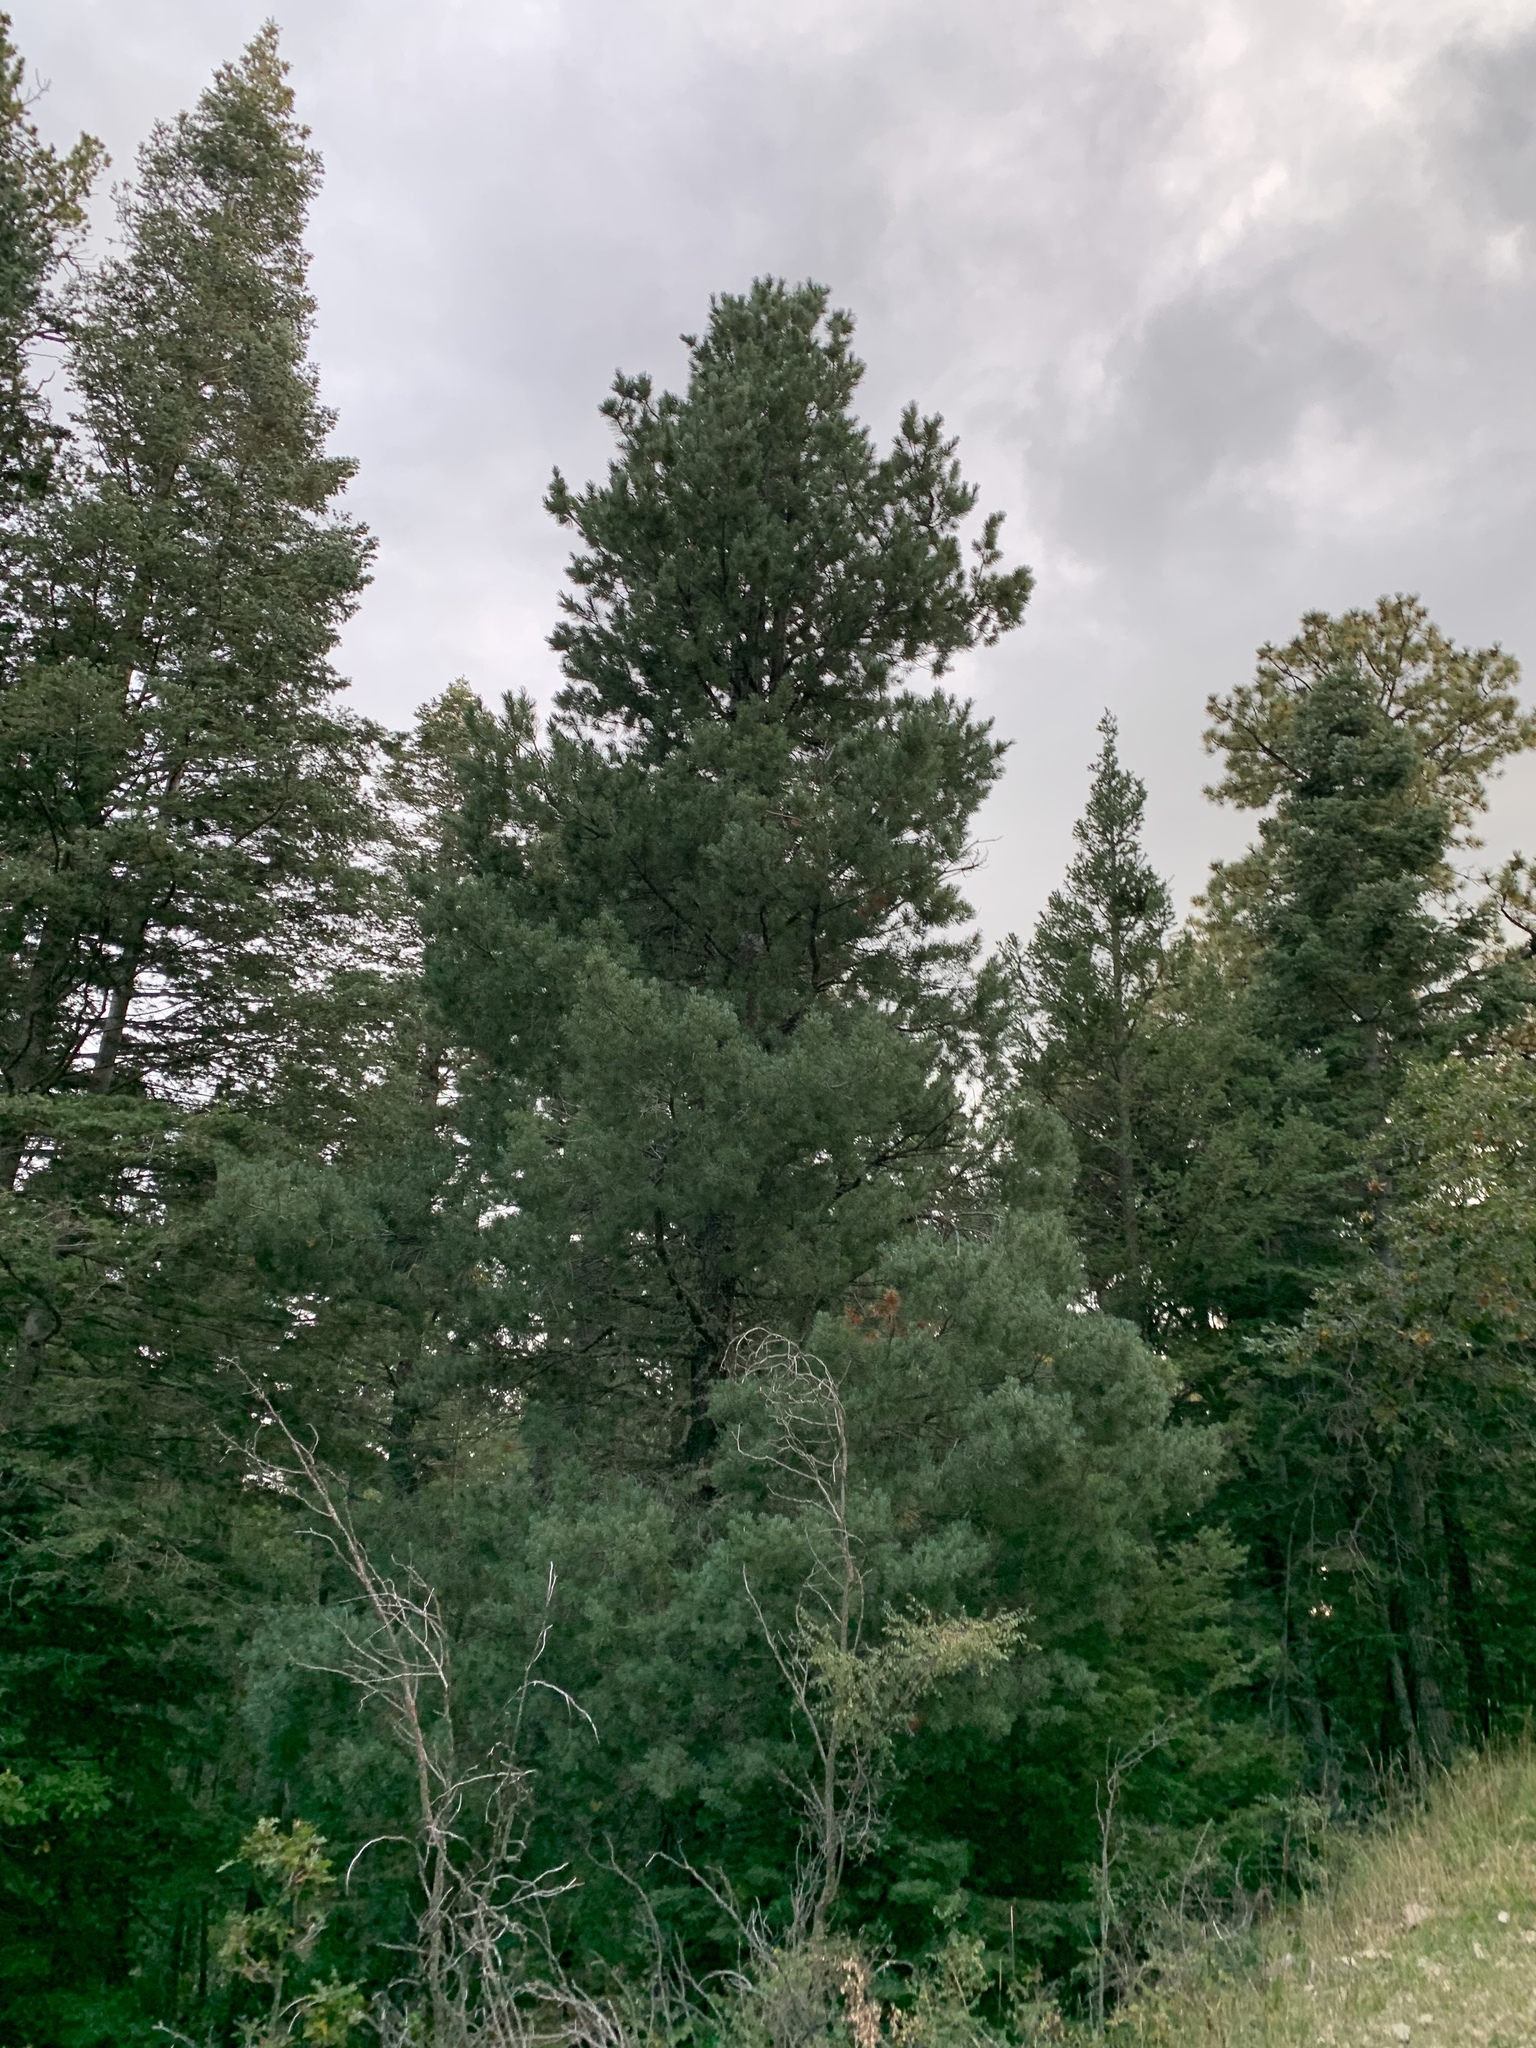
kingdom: Plantae
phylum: Tracheophyta
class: Pinopsida
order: Pinales
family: Pinaceae
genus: Pinus
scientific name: Pinus strobiformis
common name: Southwestern white pine
